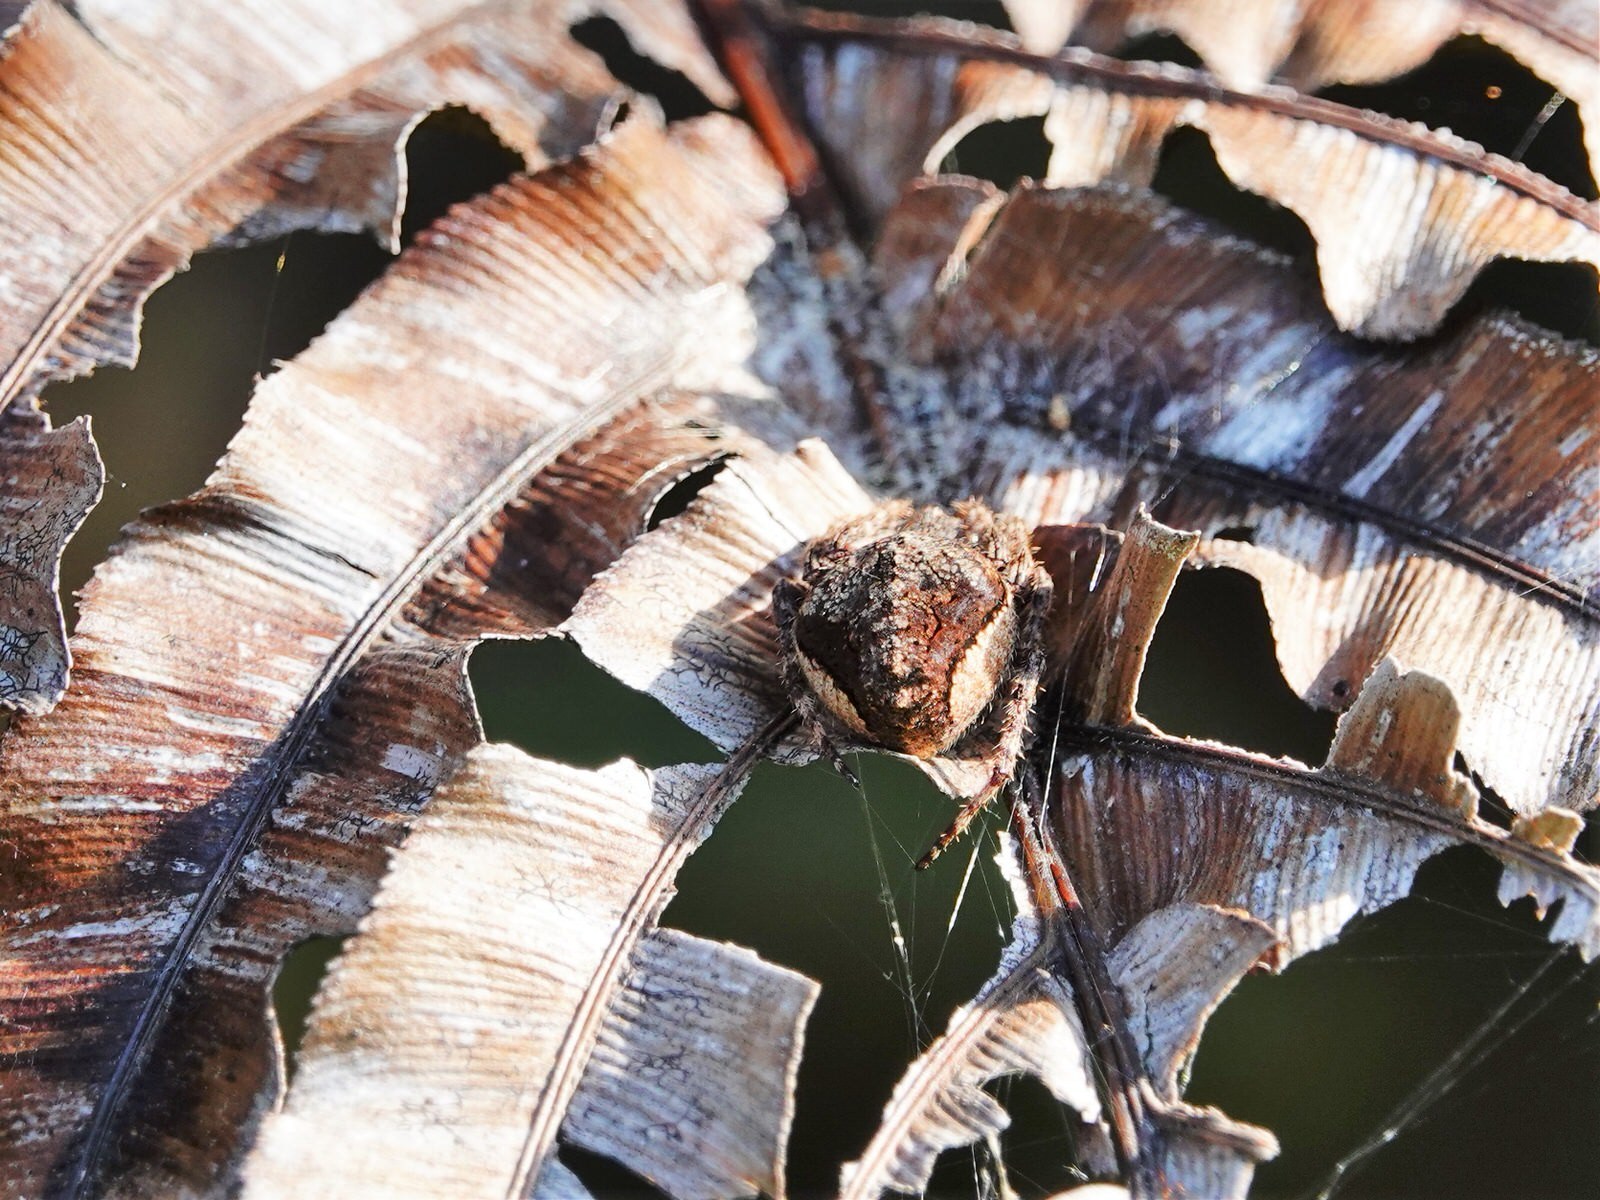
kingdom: Animalia
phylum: Arthropoda
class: Arachnida
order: Araneae
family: Araneidae
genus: Eriophora
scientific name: Eriophora pustulosa
